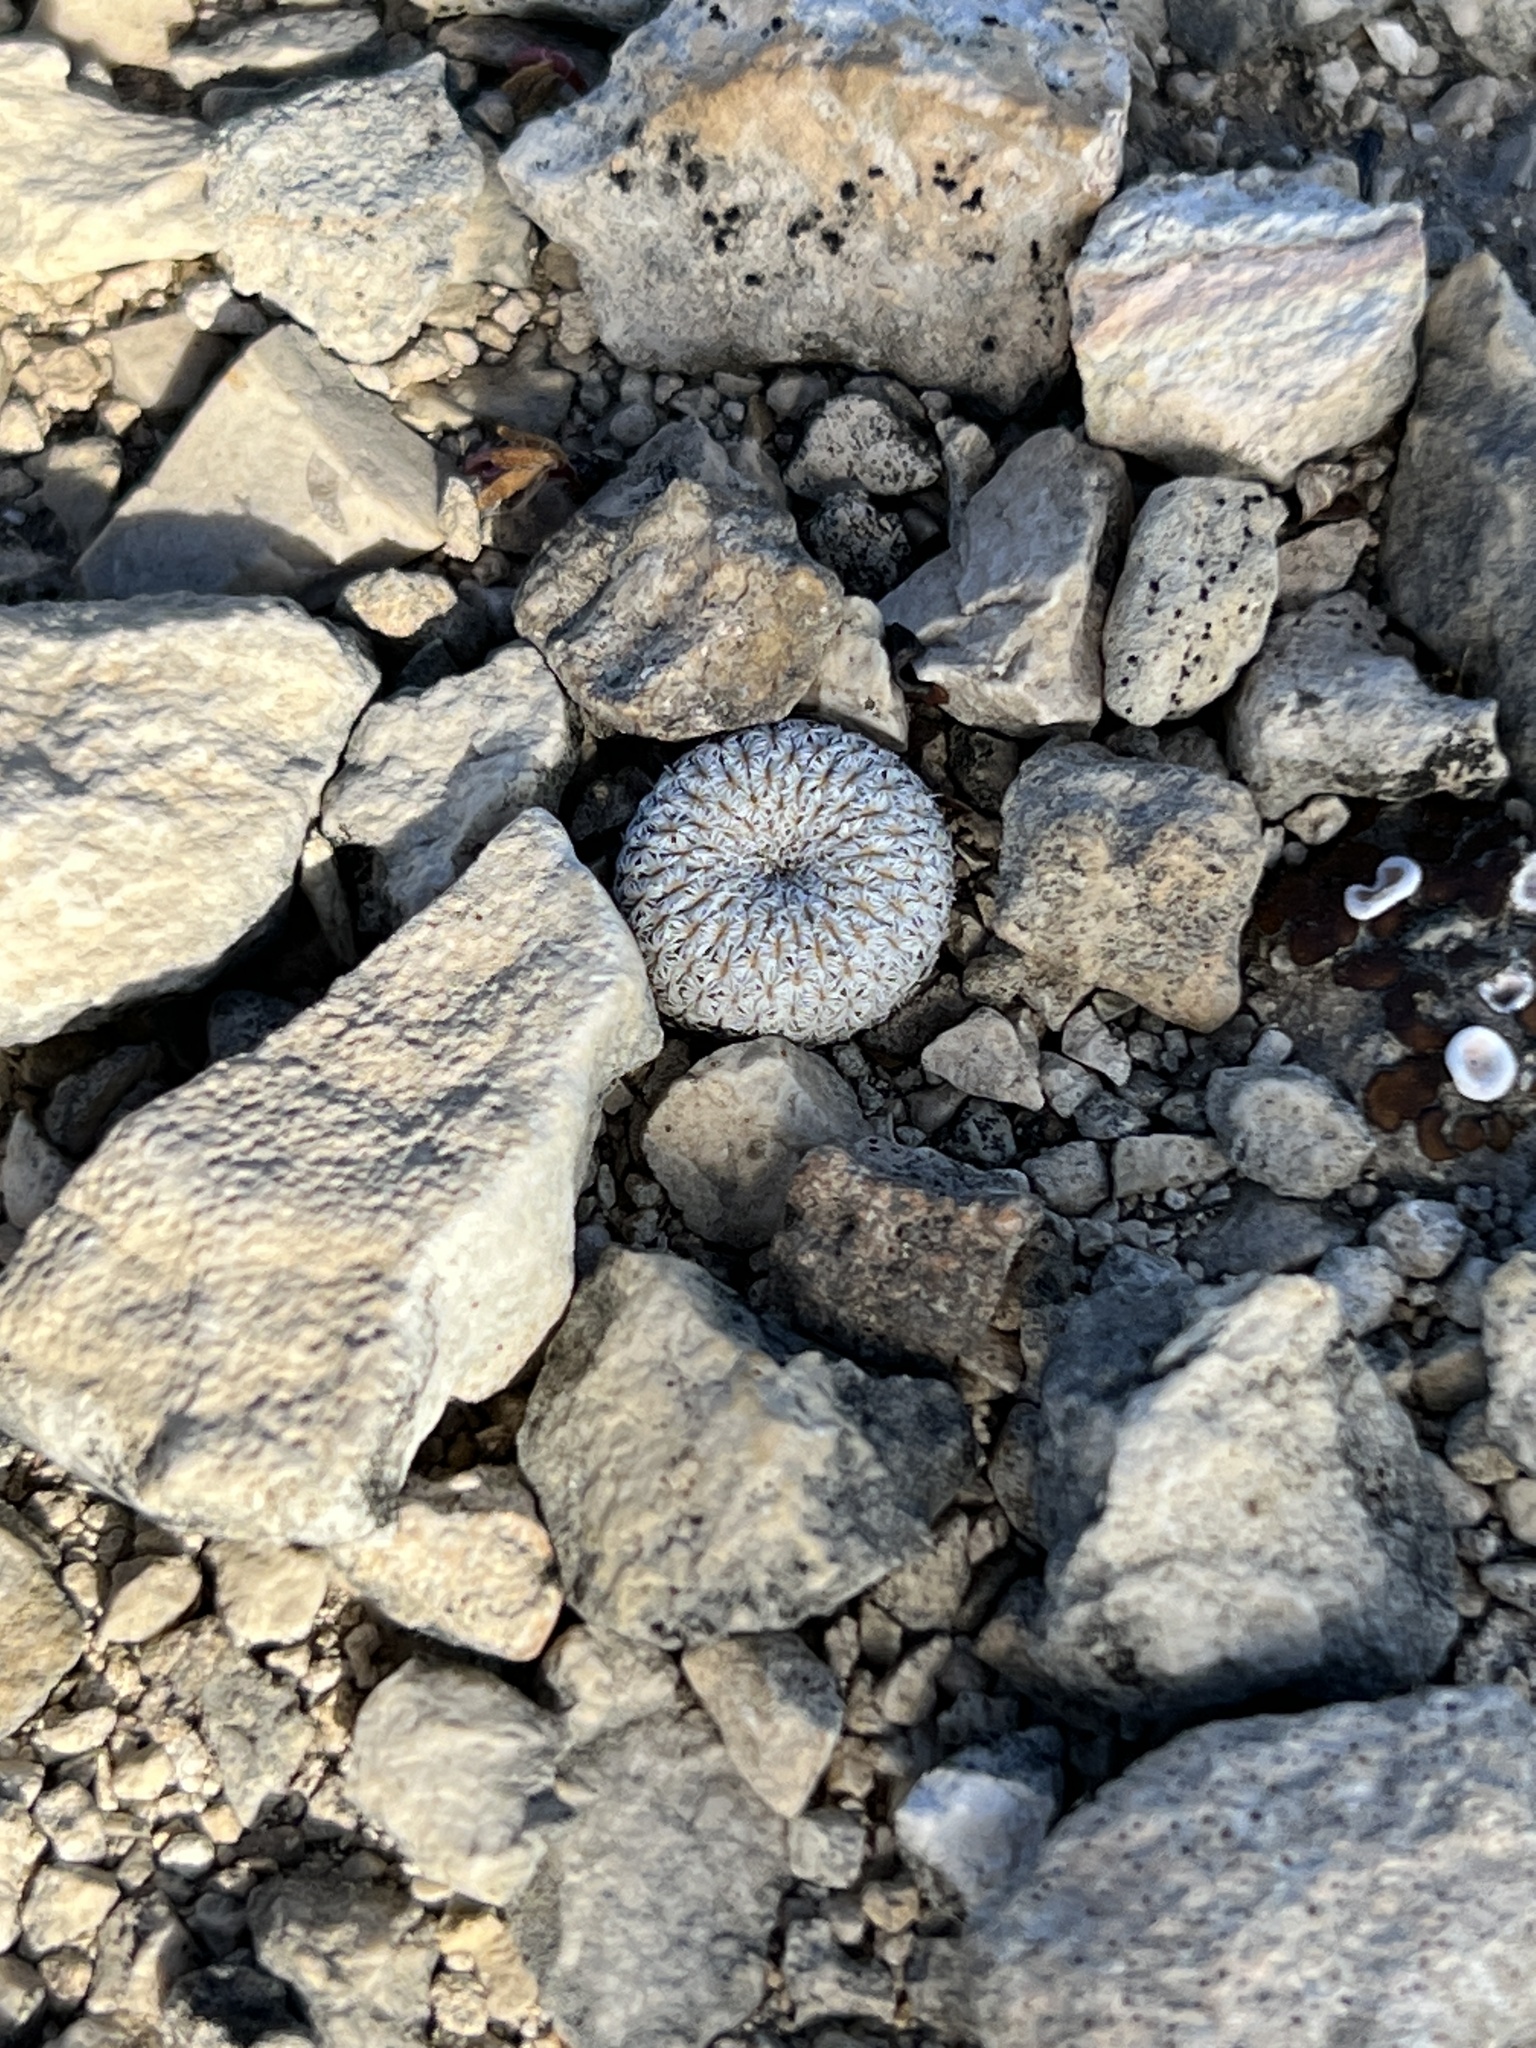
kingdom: Plantae
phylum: Tracheophyta
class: Magnoliopsida
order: Caryophyllales
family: Cactaceae
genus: Epithelantha
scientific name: Epithelantha micromeris
